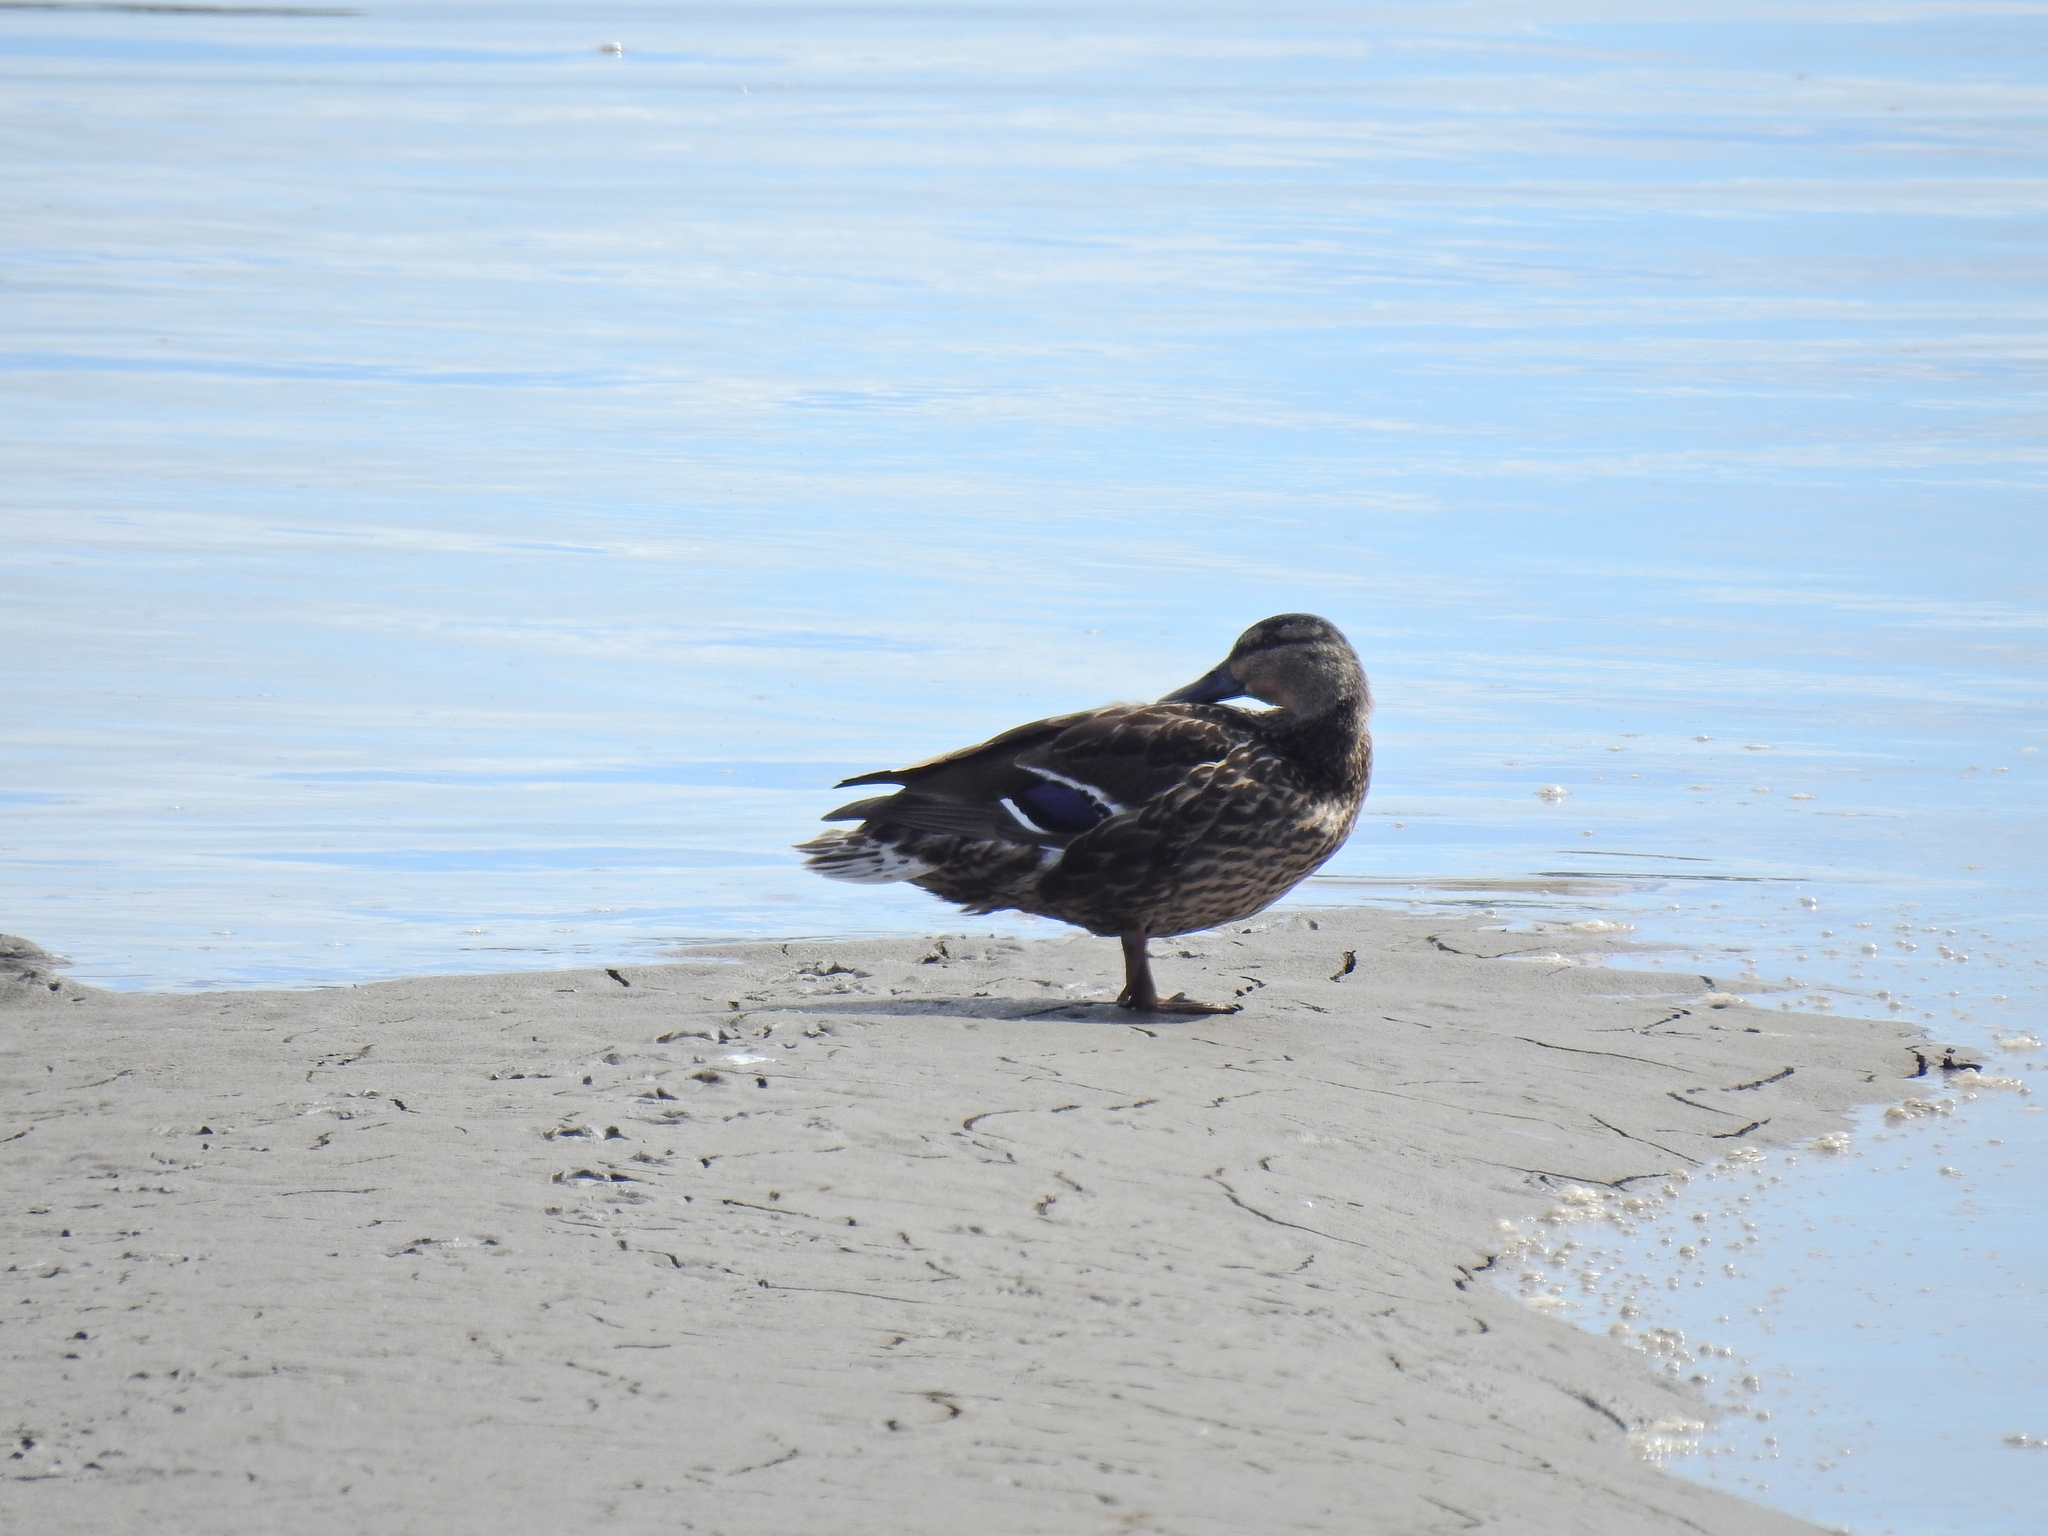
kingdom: Animalia
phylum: Chordata
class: Aves
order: Anseriformes
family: Anatidae
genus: Anas
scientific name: Anas platyrhynchos
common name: Mallard
